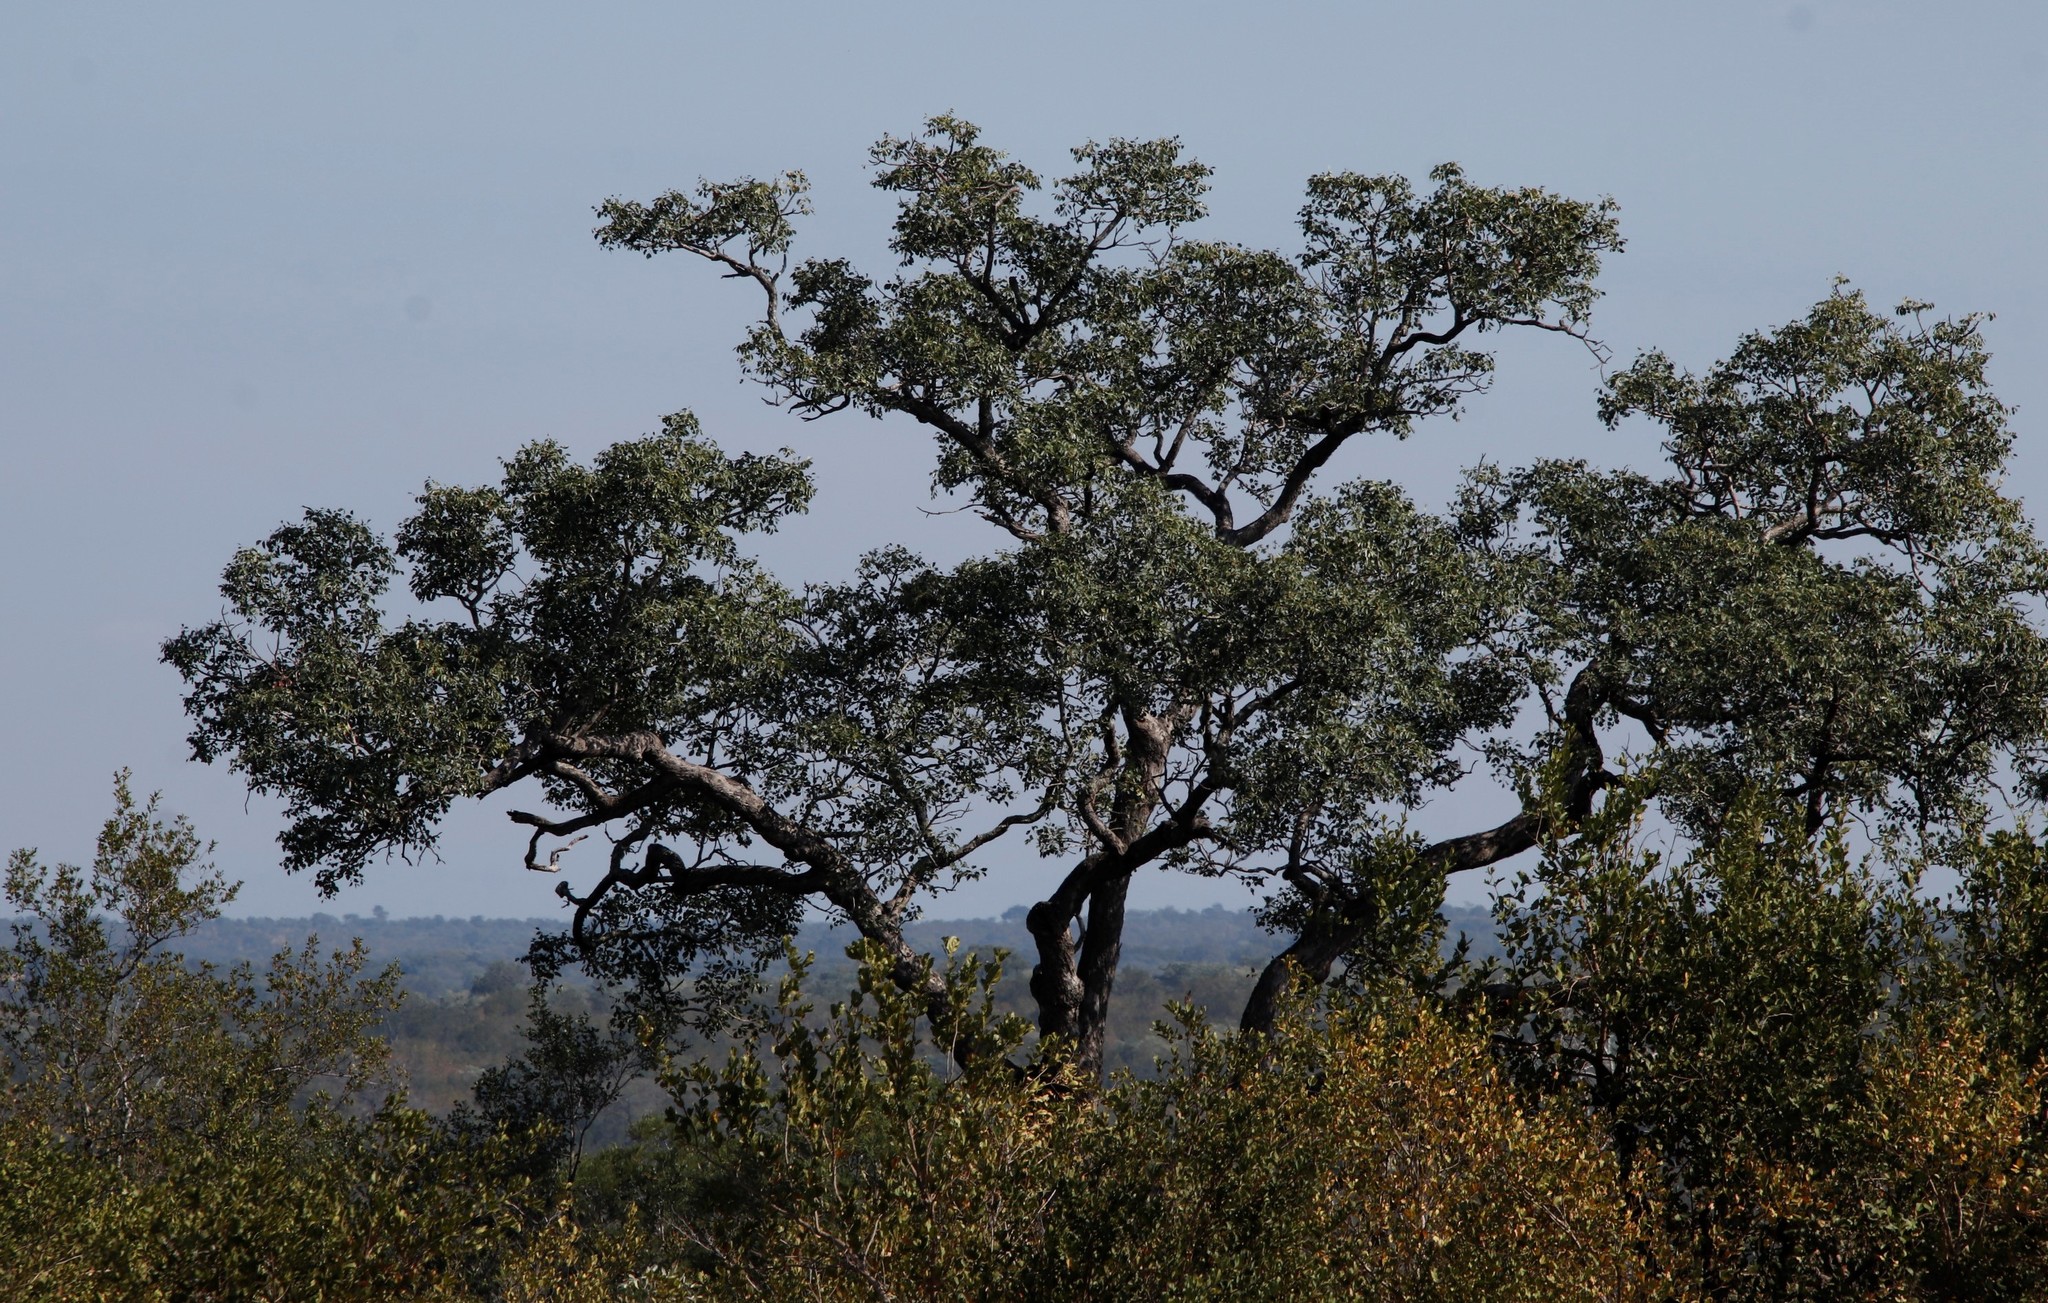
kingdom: Plantae
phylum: Tracheophyta
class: Magnoliopsida
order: Sapindales
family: Anacardiaceae
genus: Sclerocarya
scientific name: Sclerocarya birrea
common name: Marula
